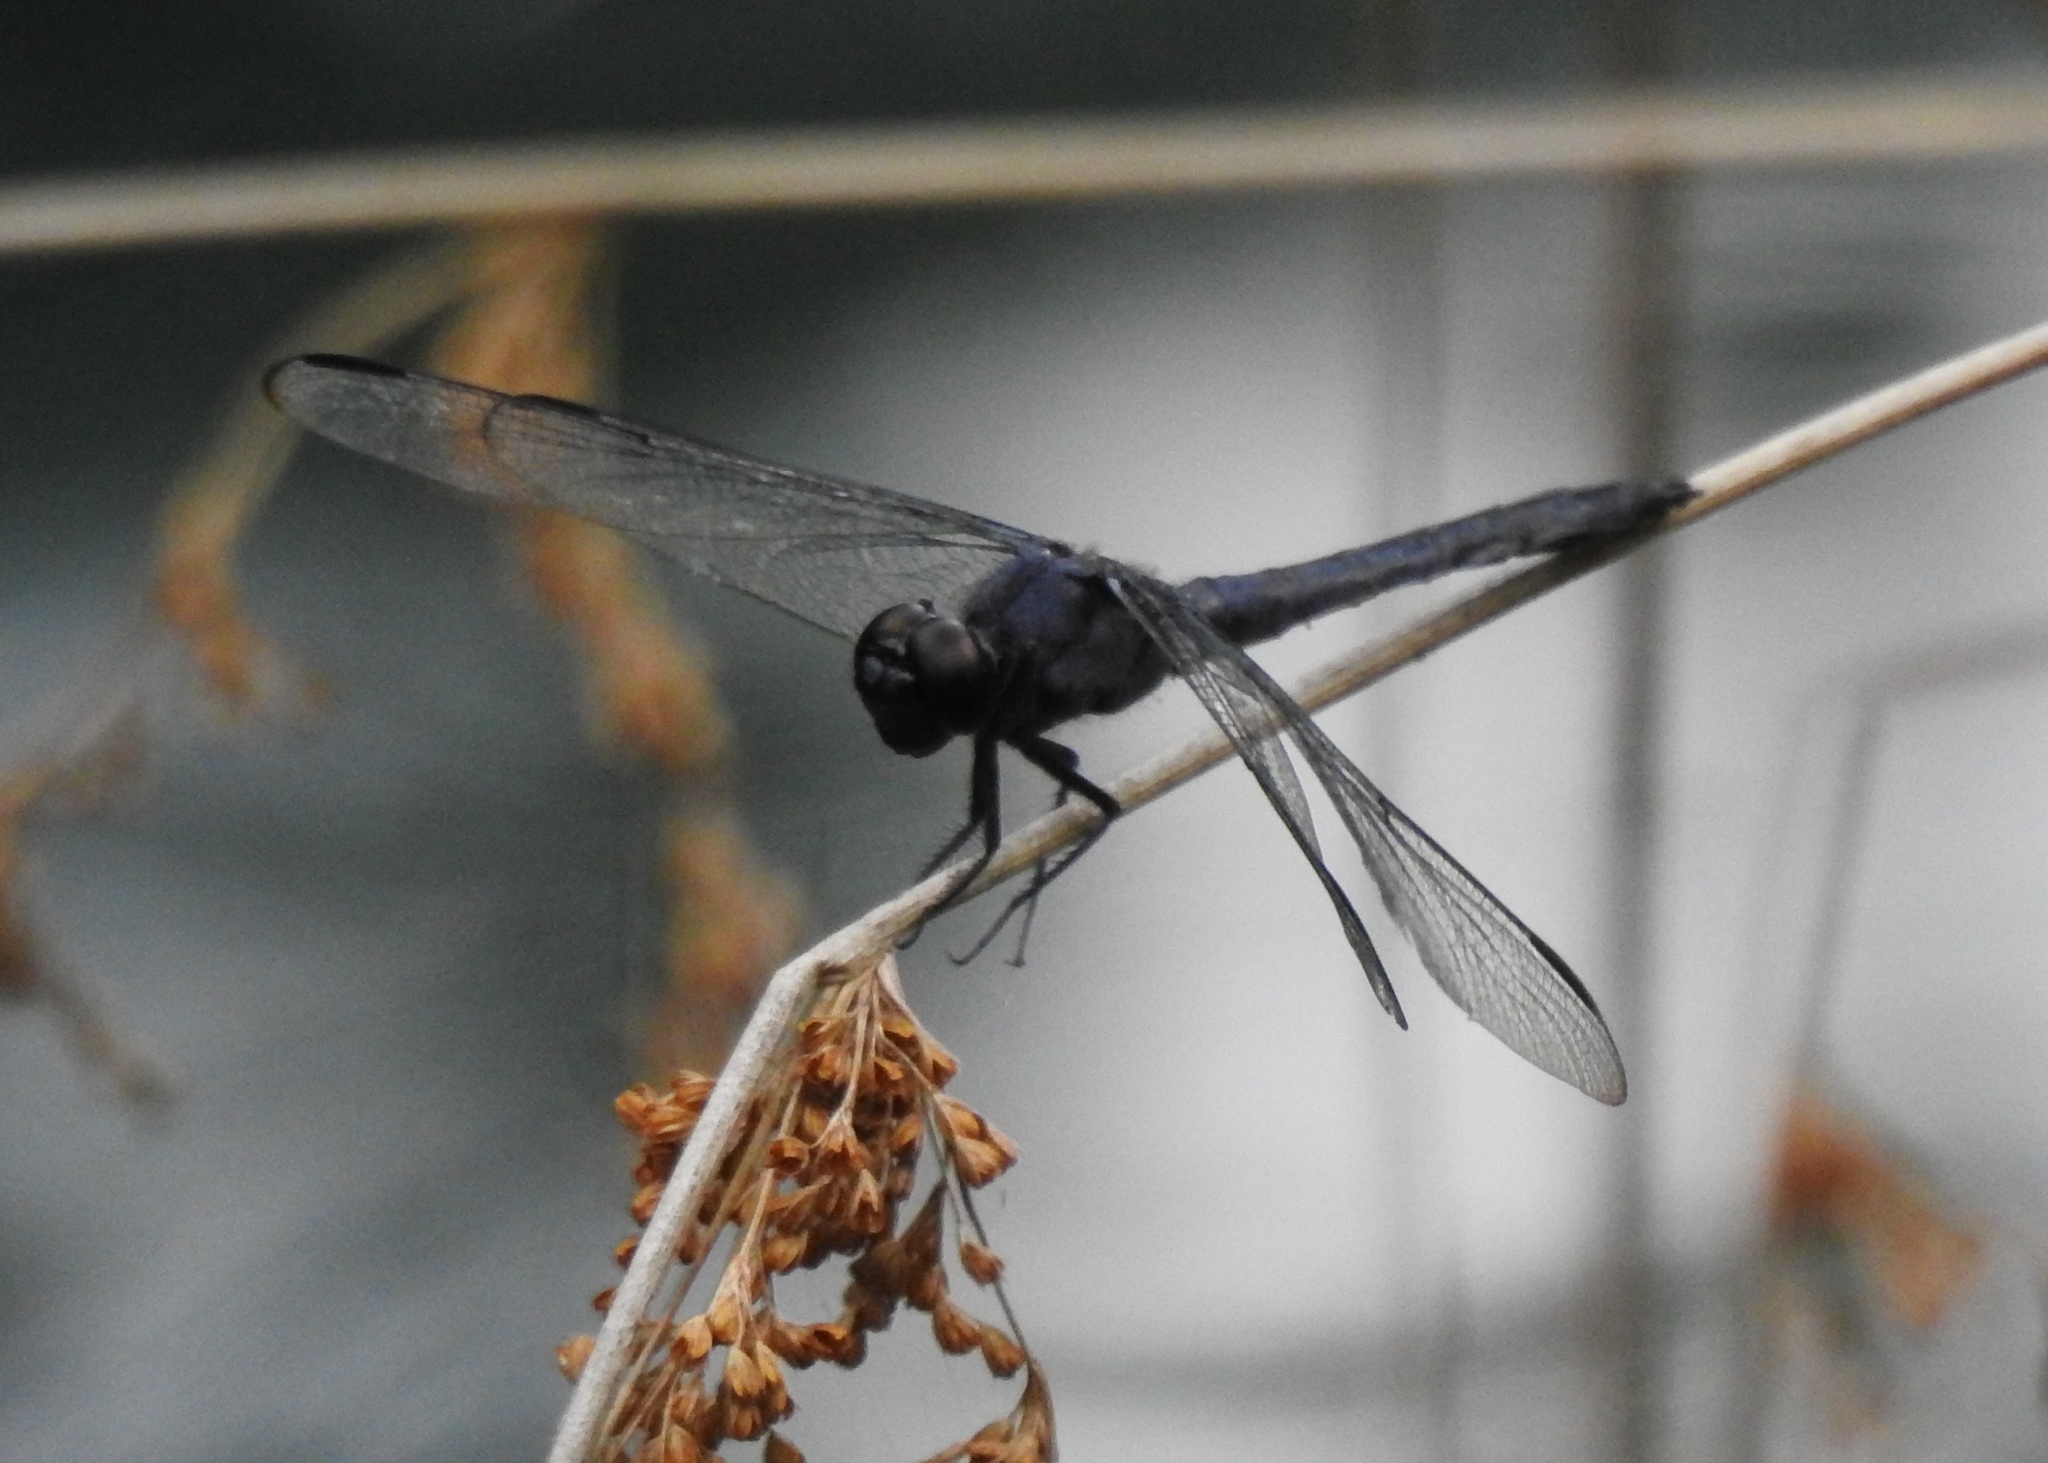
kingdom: Animalia
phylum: Arthropoda
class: Insecta
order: Odonata
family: Libellulidae
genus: Libellula
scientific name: Libellula incesta
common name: Slaty skimmer
